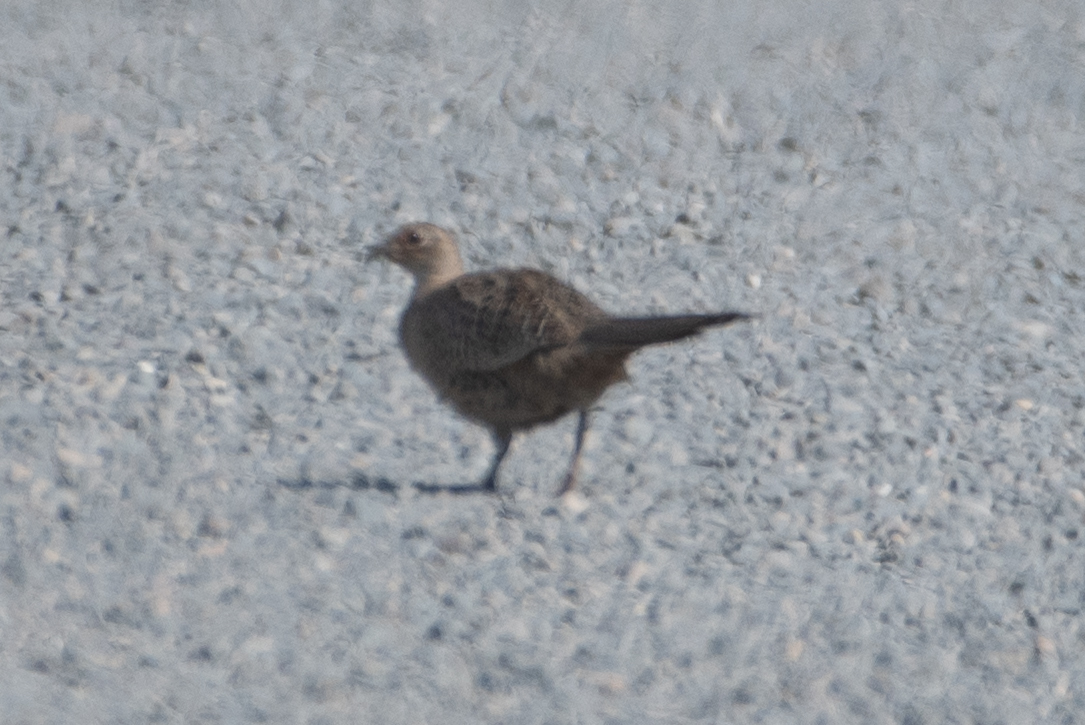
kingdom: Animalia
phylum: Chordata
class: Aves
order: Galliformes
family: Phasianidae
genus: Phasianus
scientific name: Phasianus colchicus
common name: Common pheasant
